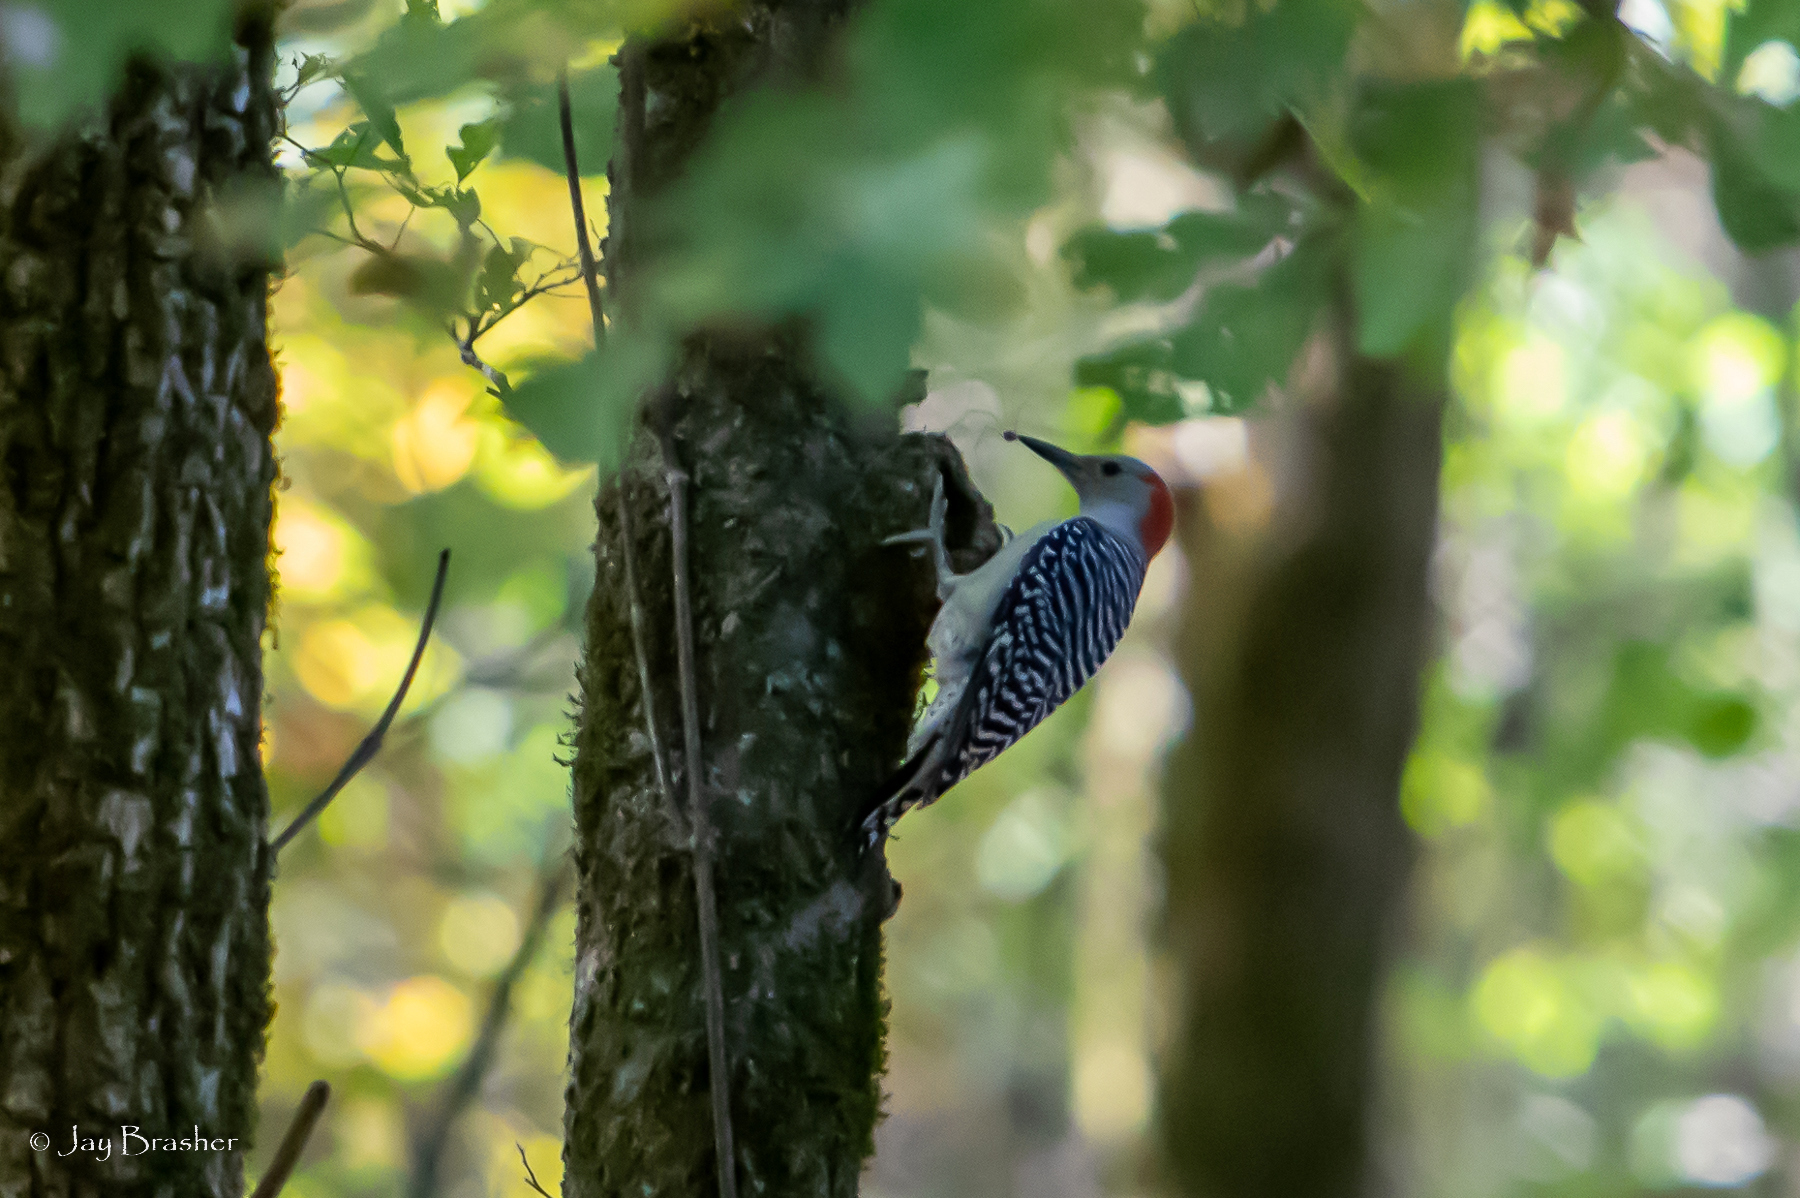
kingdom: Animalia
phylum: Chordata
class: Aves
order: Piciformes
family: Picidae
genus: Melanerpes
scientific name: Melanerpes carolinus
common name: Red-bellied woodpecker
